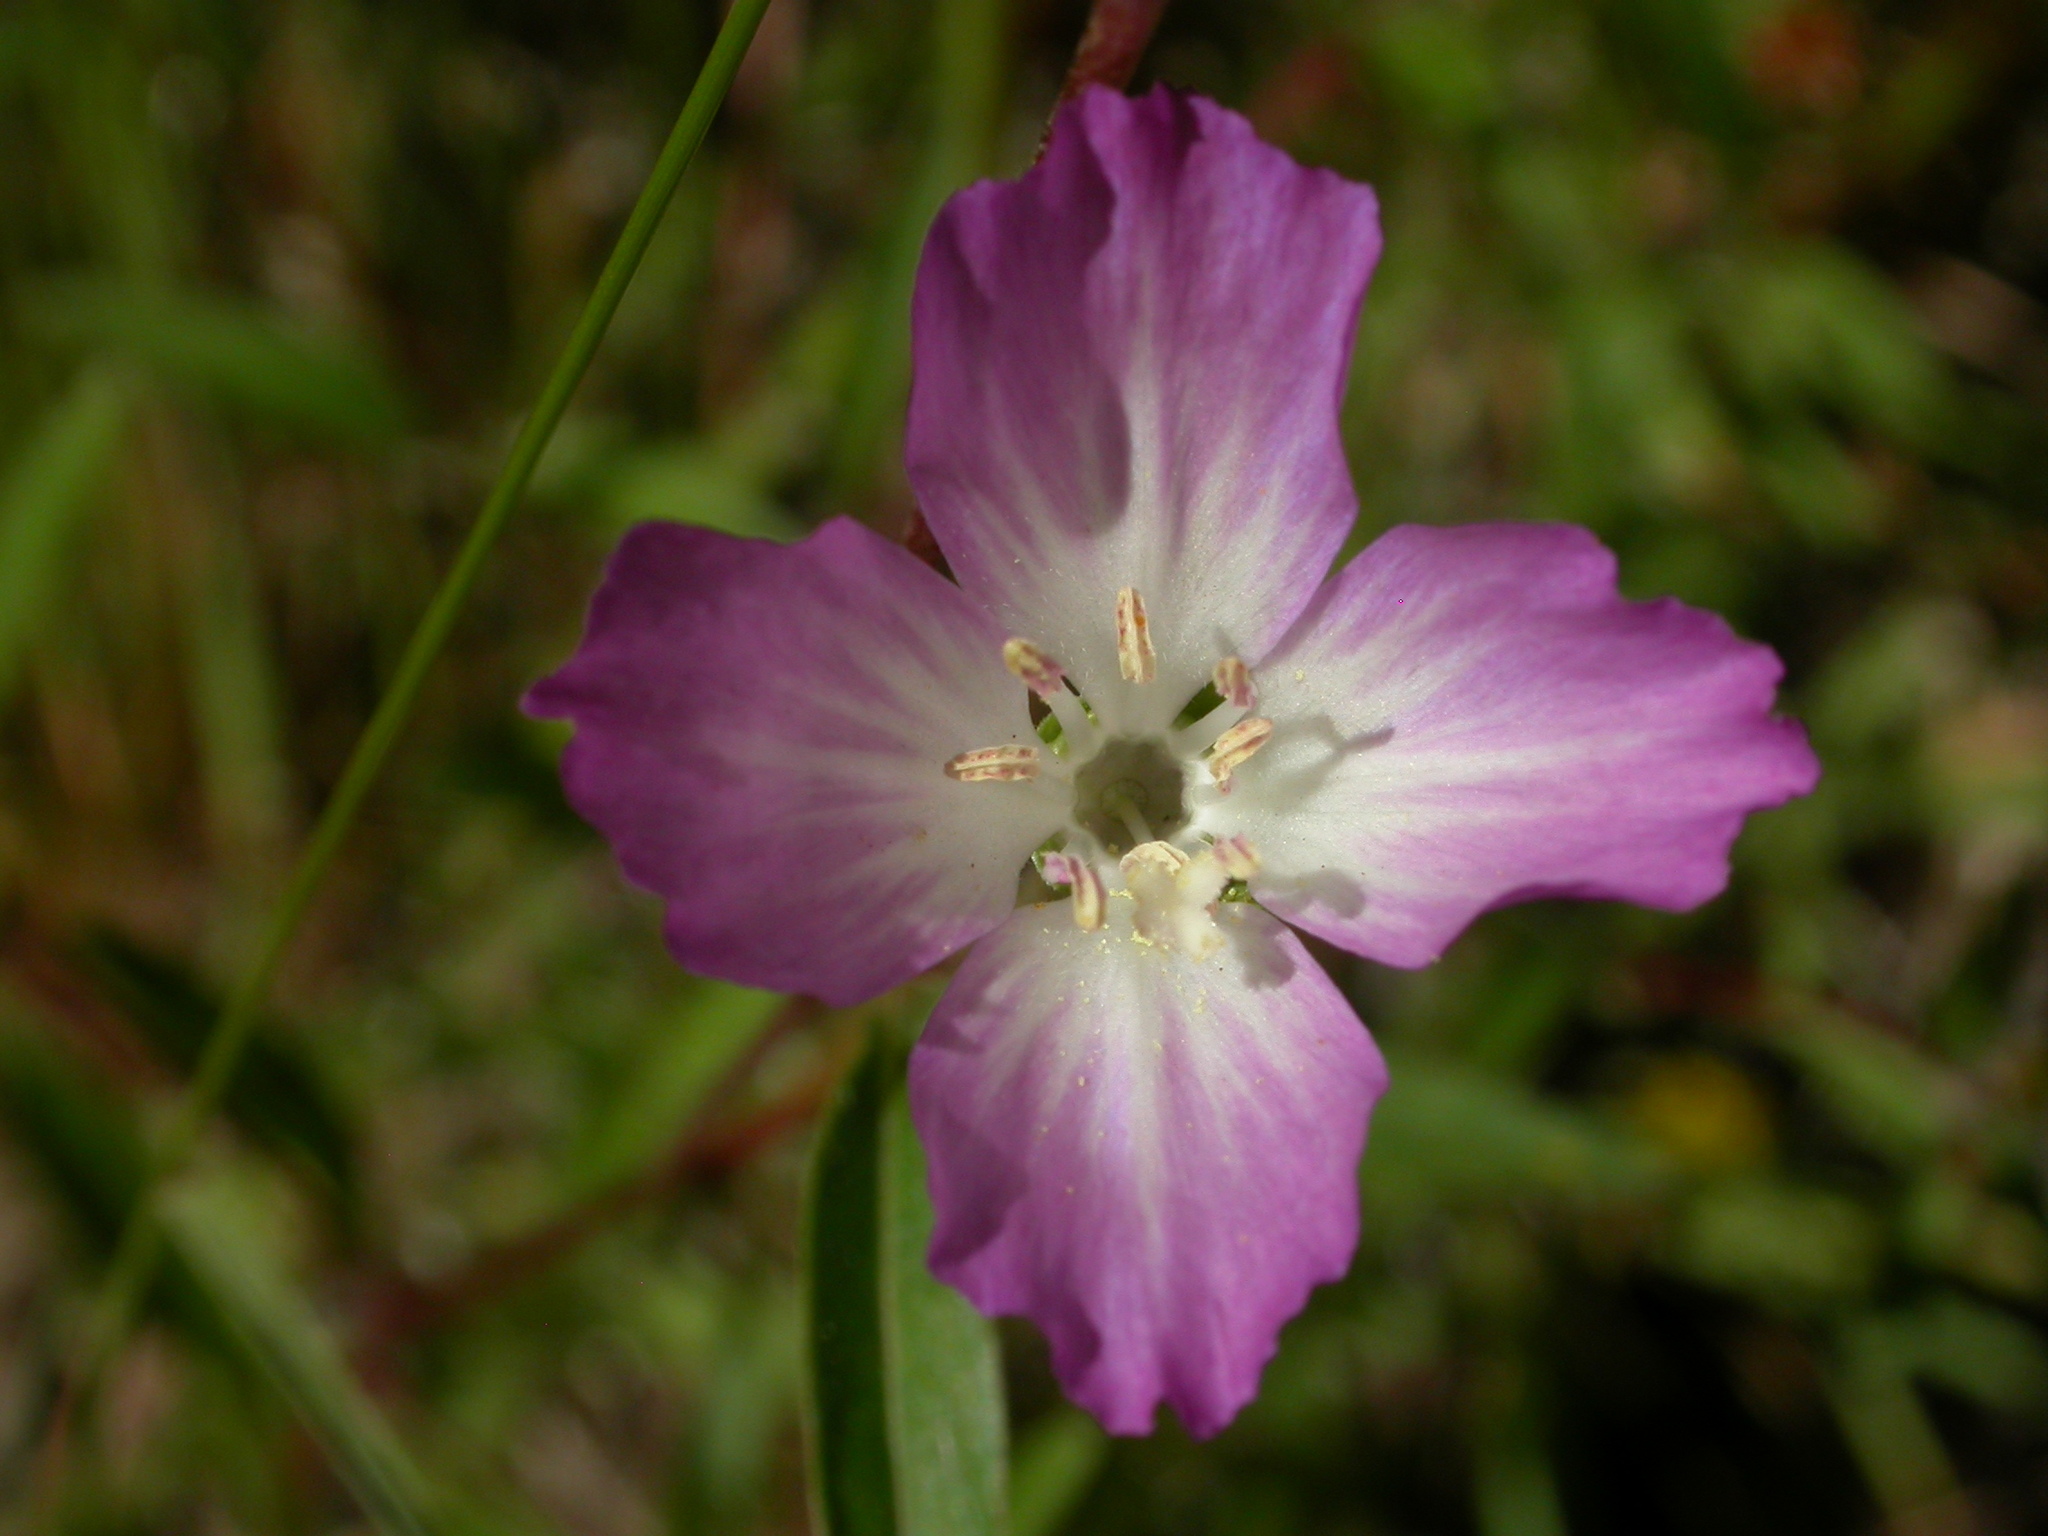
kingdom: Plantae
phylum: Tracheophyta
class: Magnoliopsida
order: Myrtales
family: Onagraceae
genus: Clarkia
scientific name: Clarkia amoena
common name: Godetia
